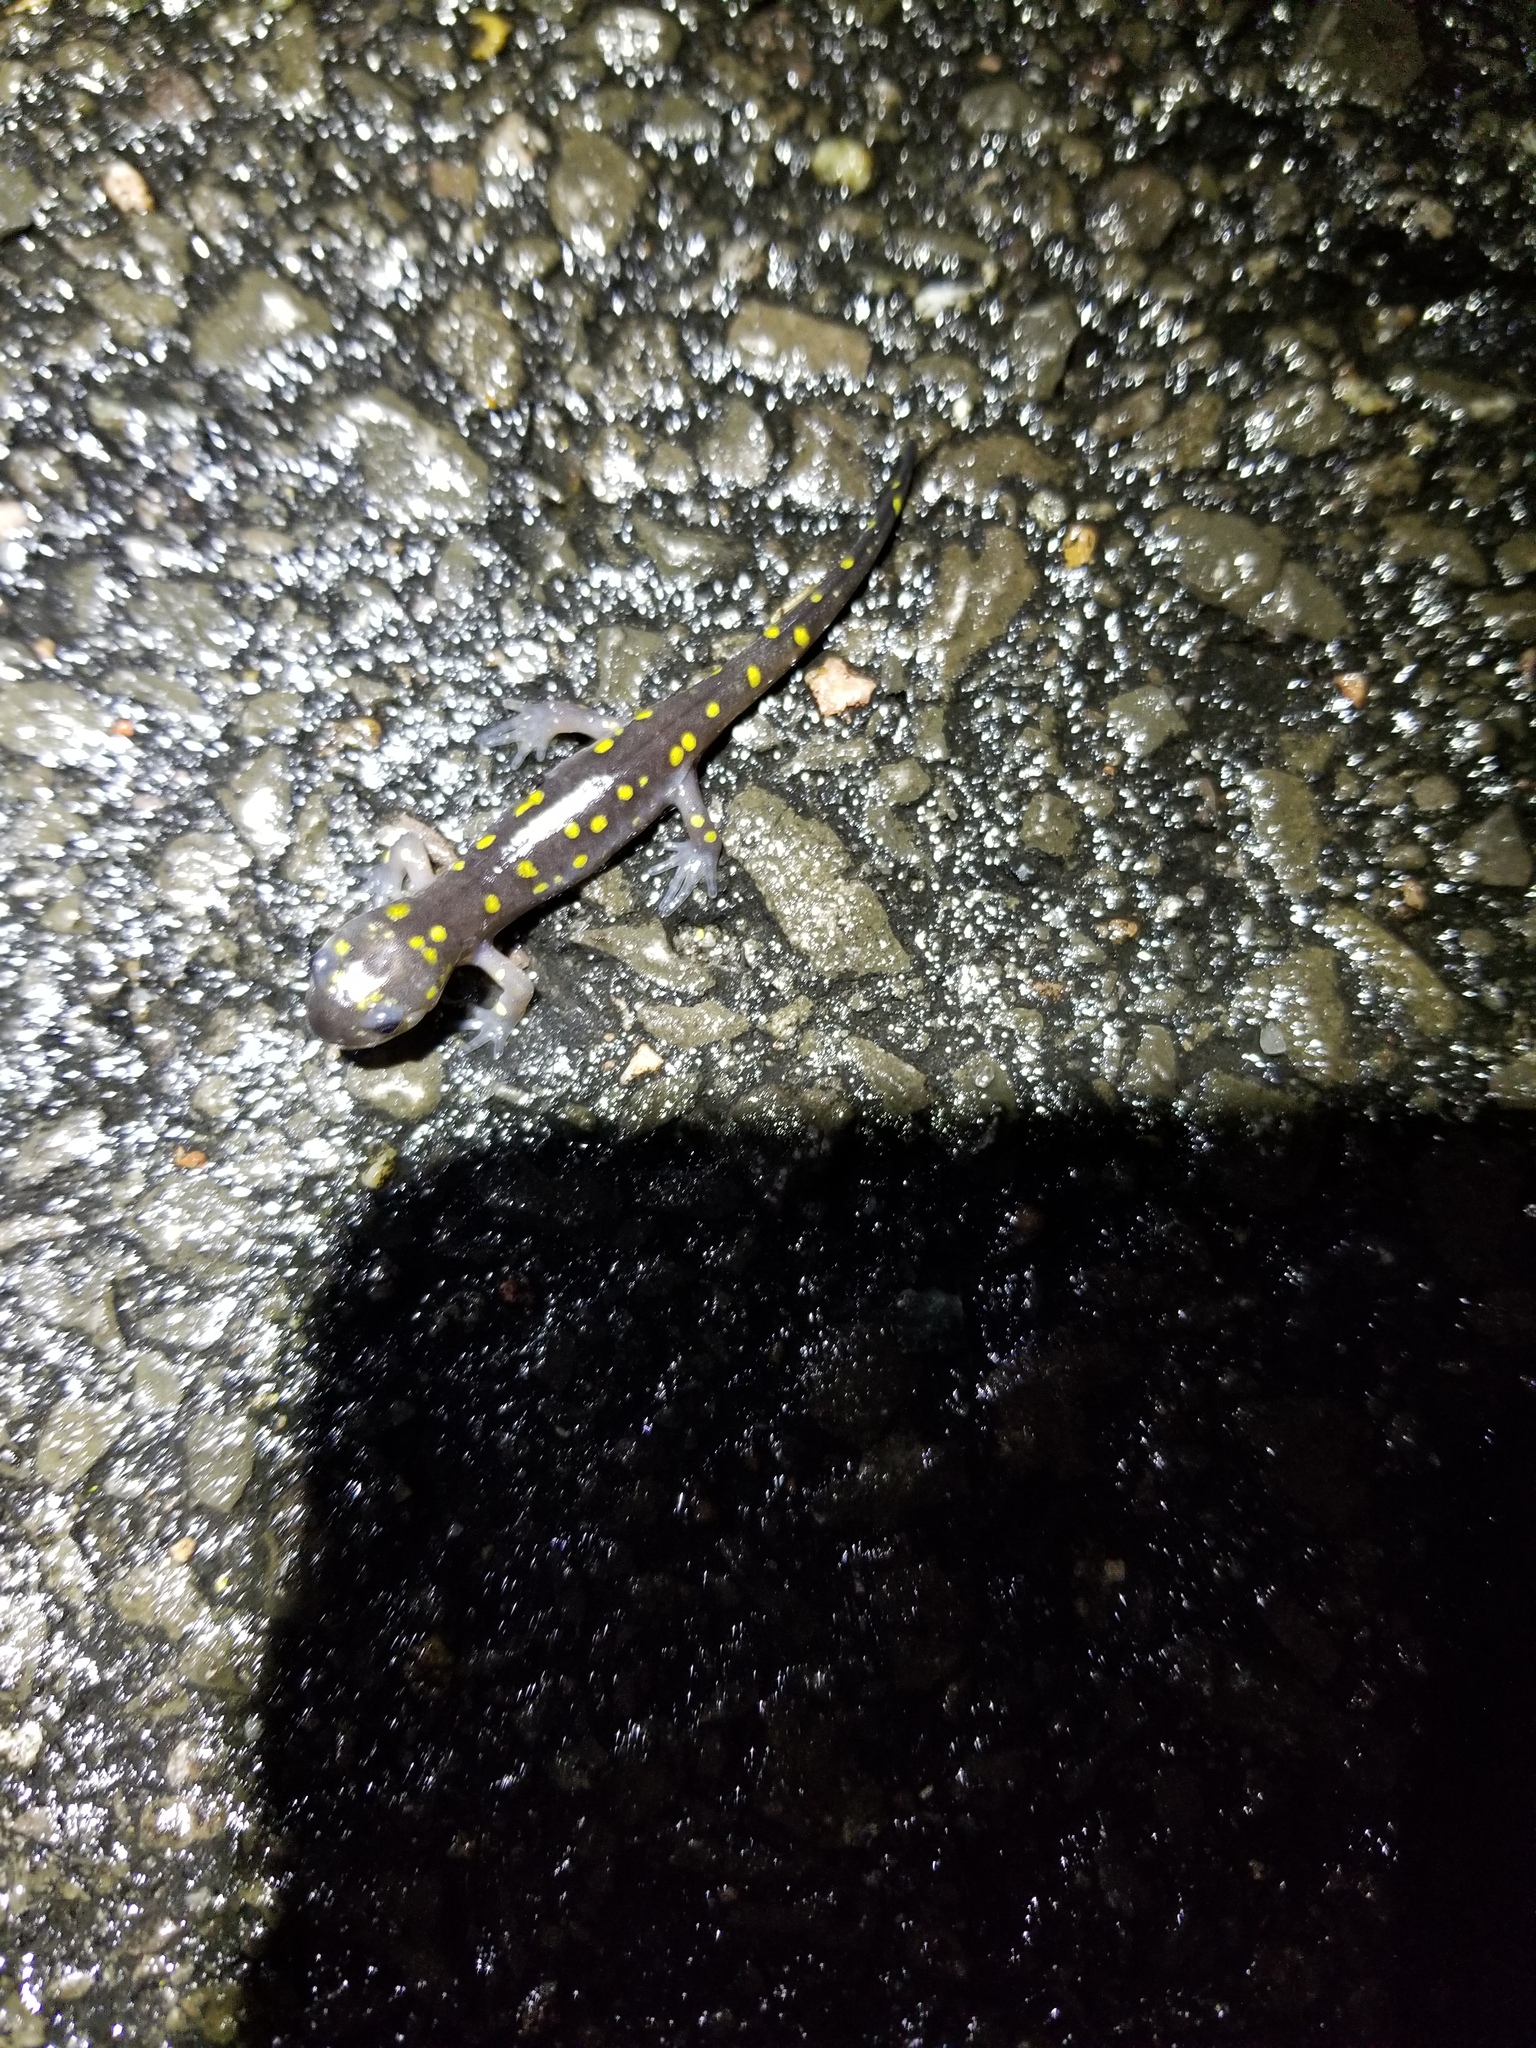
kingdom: Animalia
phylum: Chordata
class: Amphibia
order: Caudata
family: Ambystomatidae
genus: Ambystoma
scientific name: Ambystoma maculatum
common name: Spotted salamander
